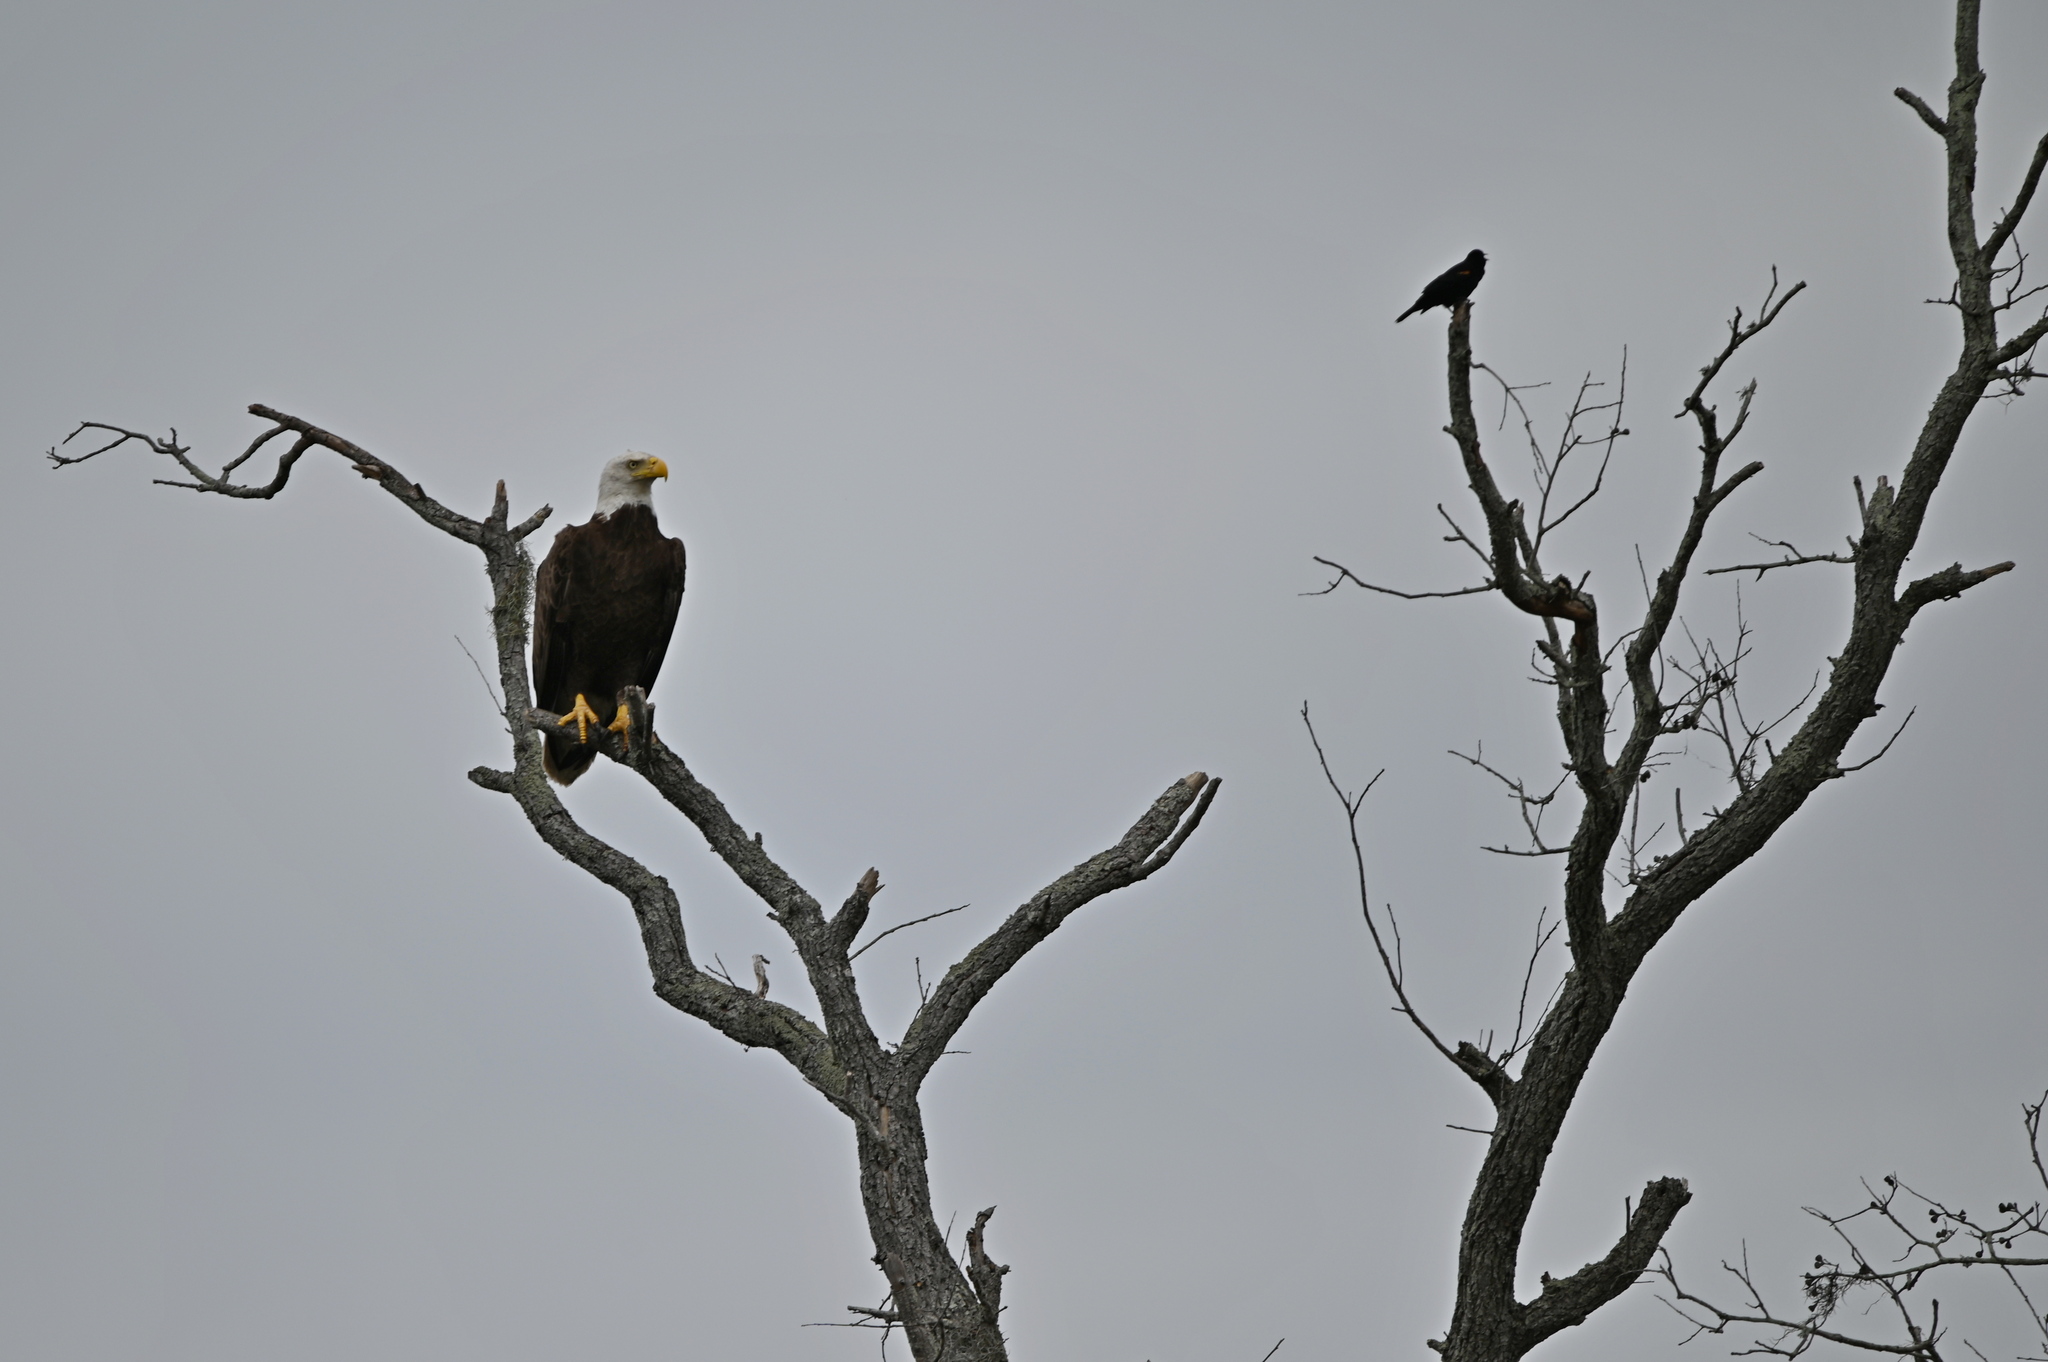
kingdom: Animalia
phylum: Chordata
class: Aves
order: Accipitriformes
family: Accipitridae
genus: Haliaeetus
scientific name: Haliaeetus leucocephalus
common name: Bald eagle
